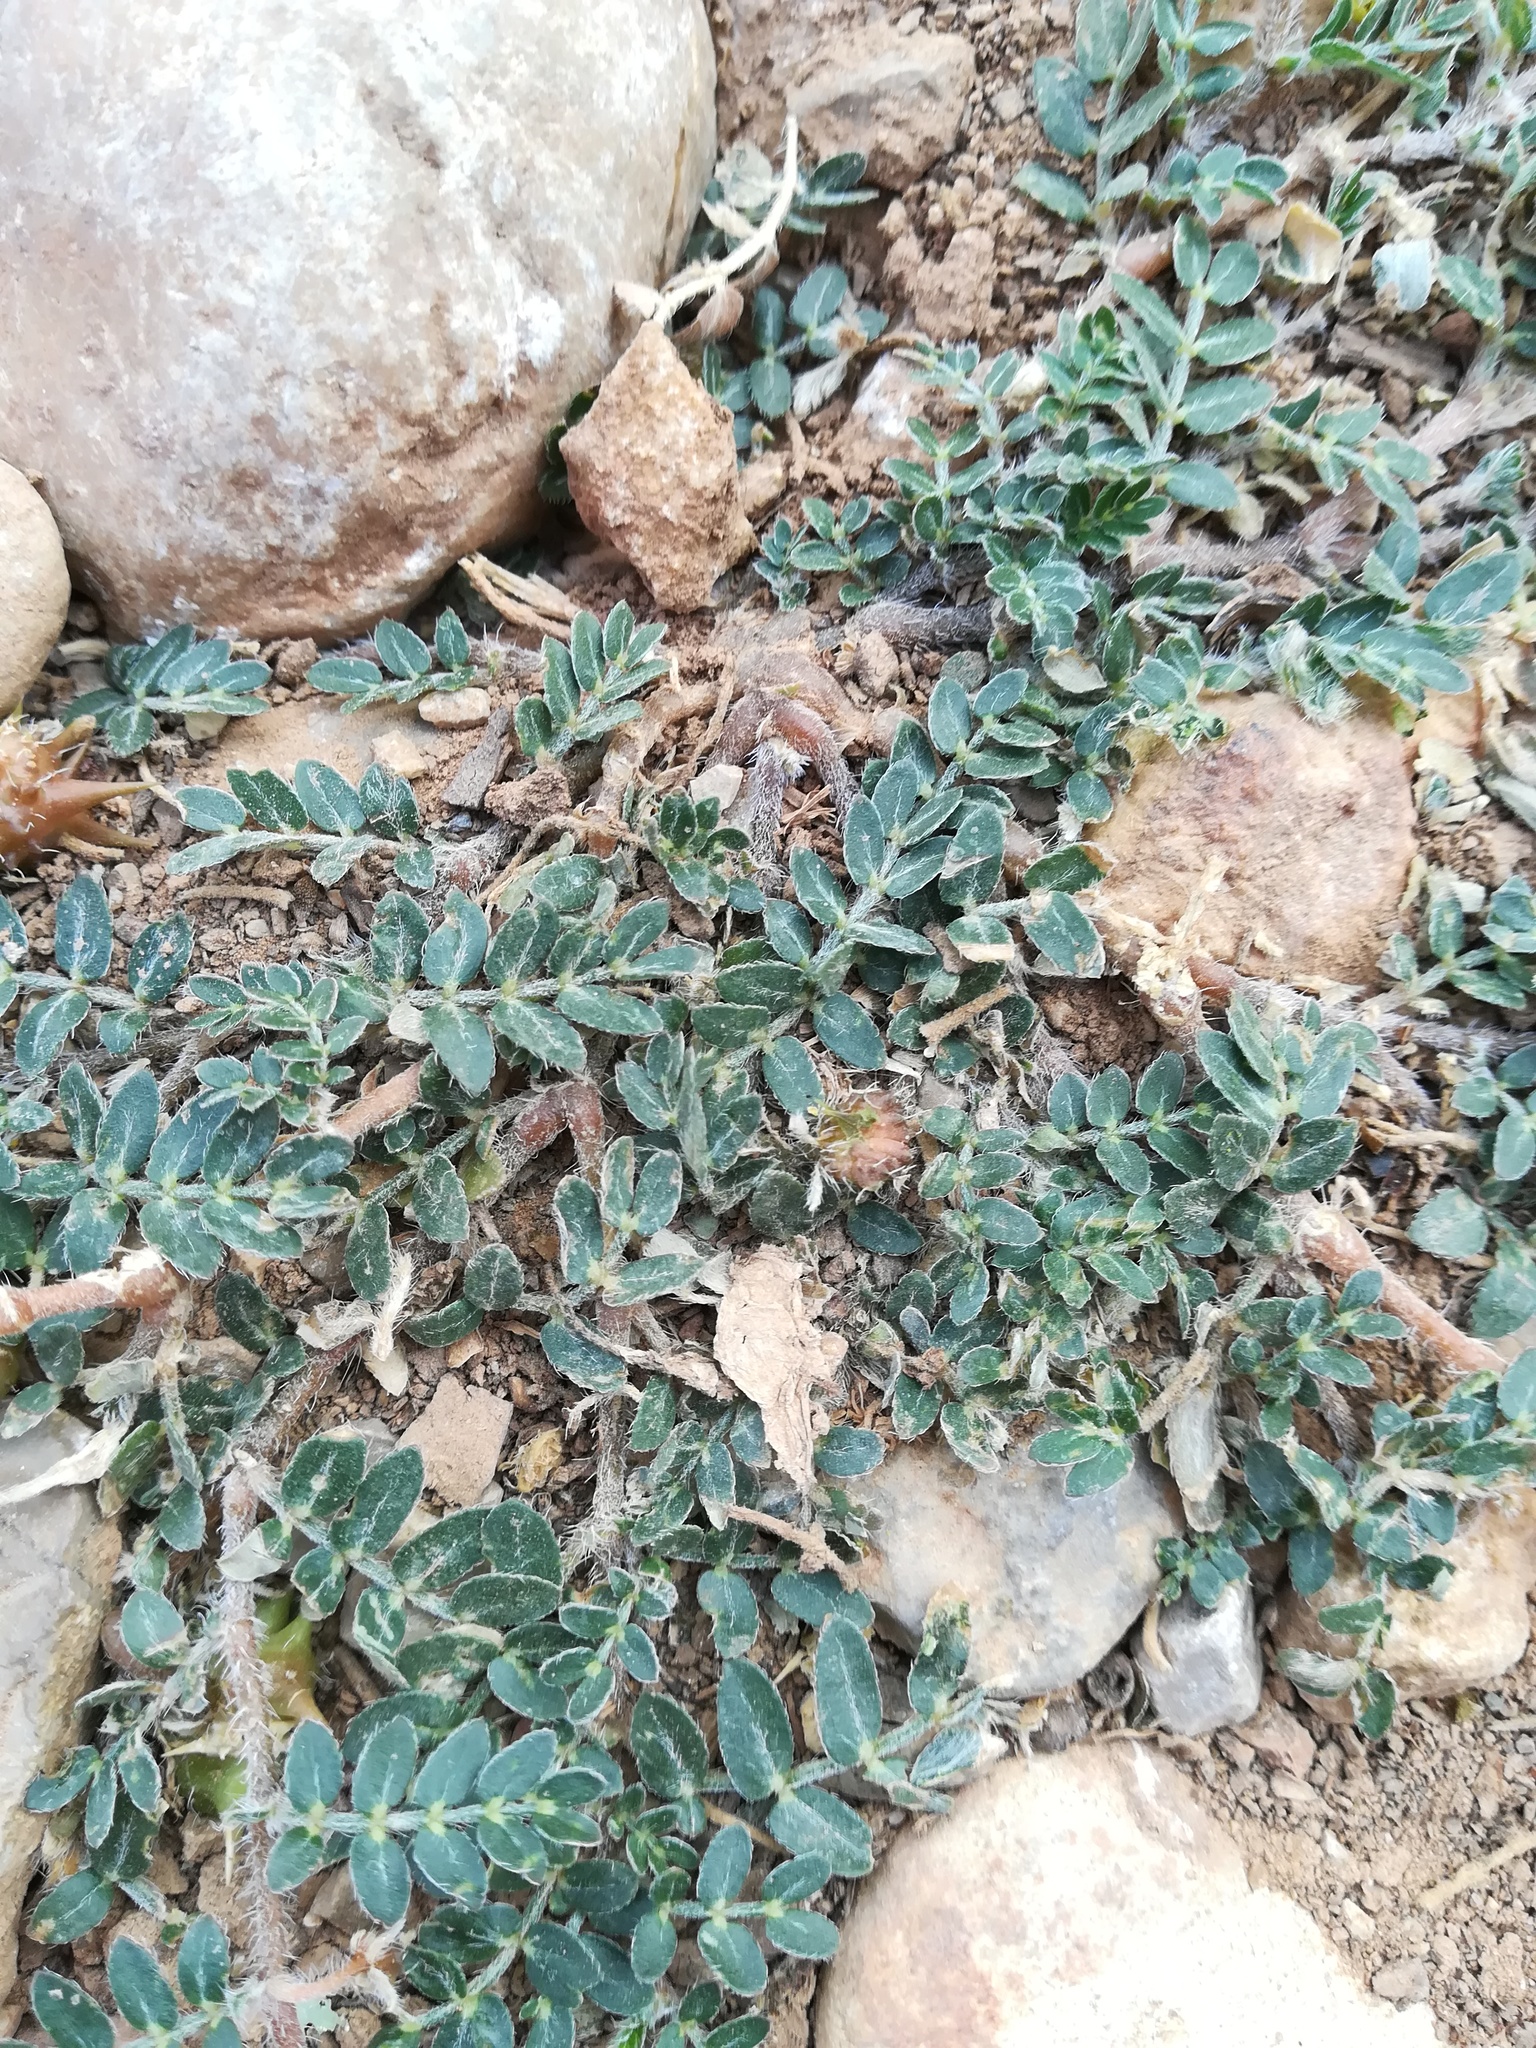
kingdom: Plantae
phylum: Tracheophyta
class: Magnoliopsida
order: Zygophyllales
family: Zygophyllaceae
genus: Tribulus
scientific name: Tribulus terrestris
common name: Puncturevine
